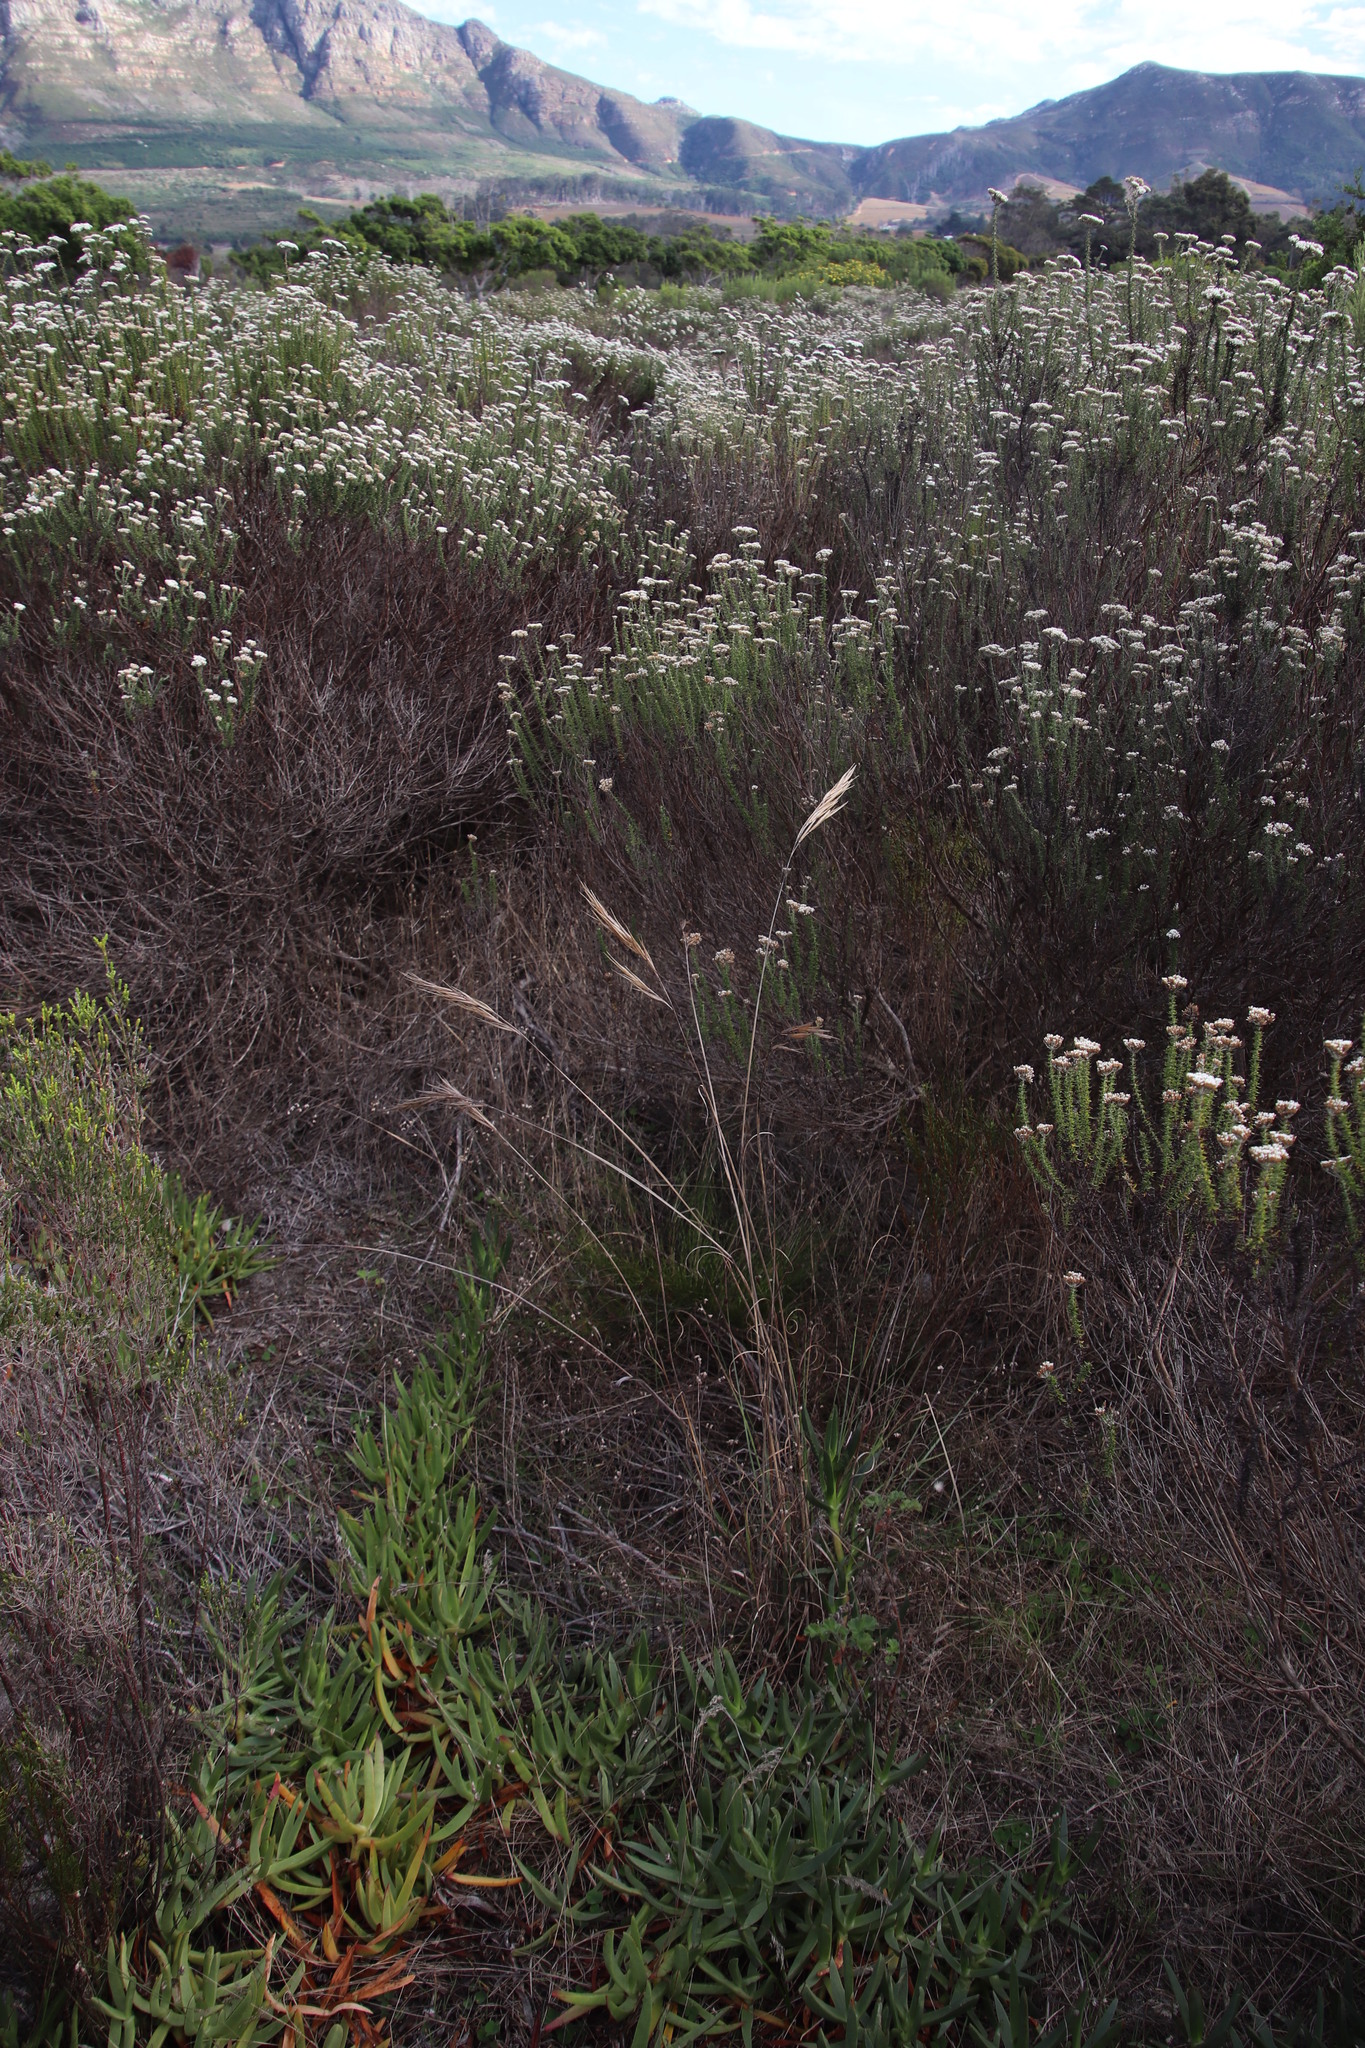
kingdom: Plantae
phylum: Tracheophyta
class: Liliopsida
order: Poales
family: Poaceae
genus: Pseudopentameris
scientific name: Pseudopentameris macrantha
